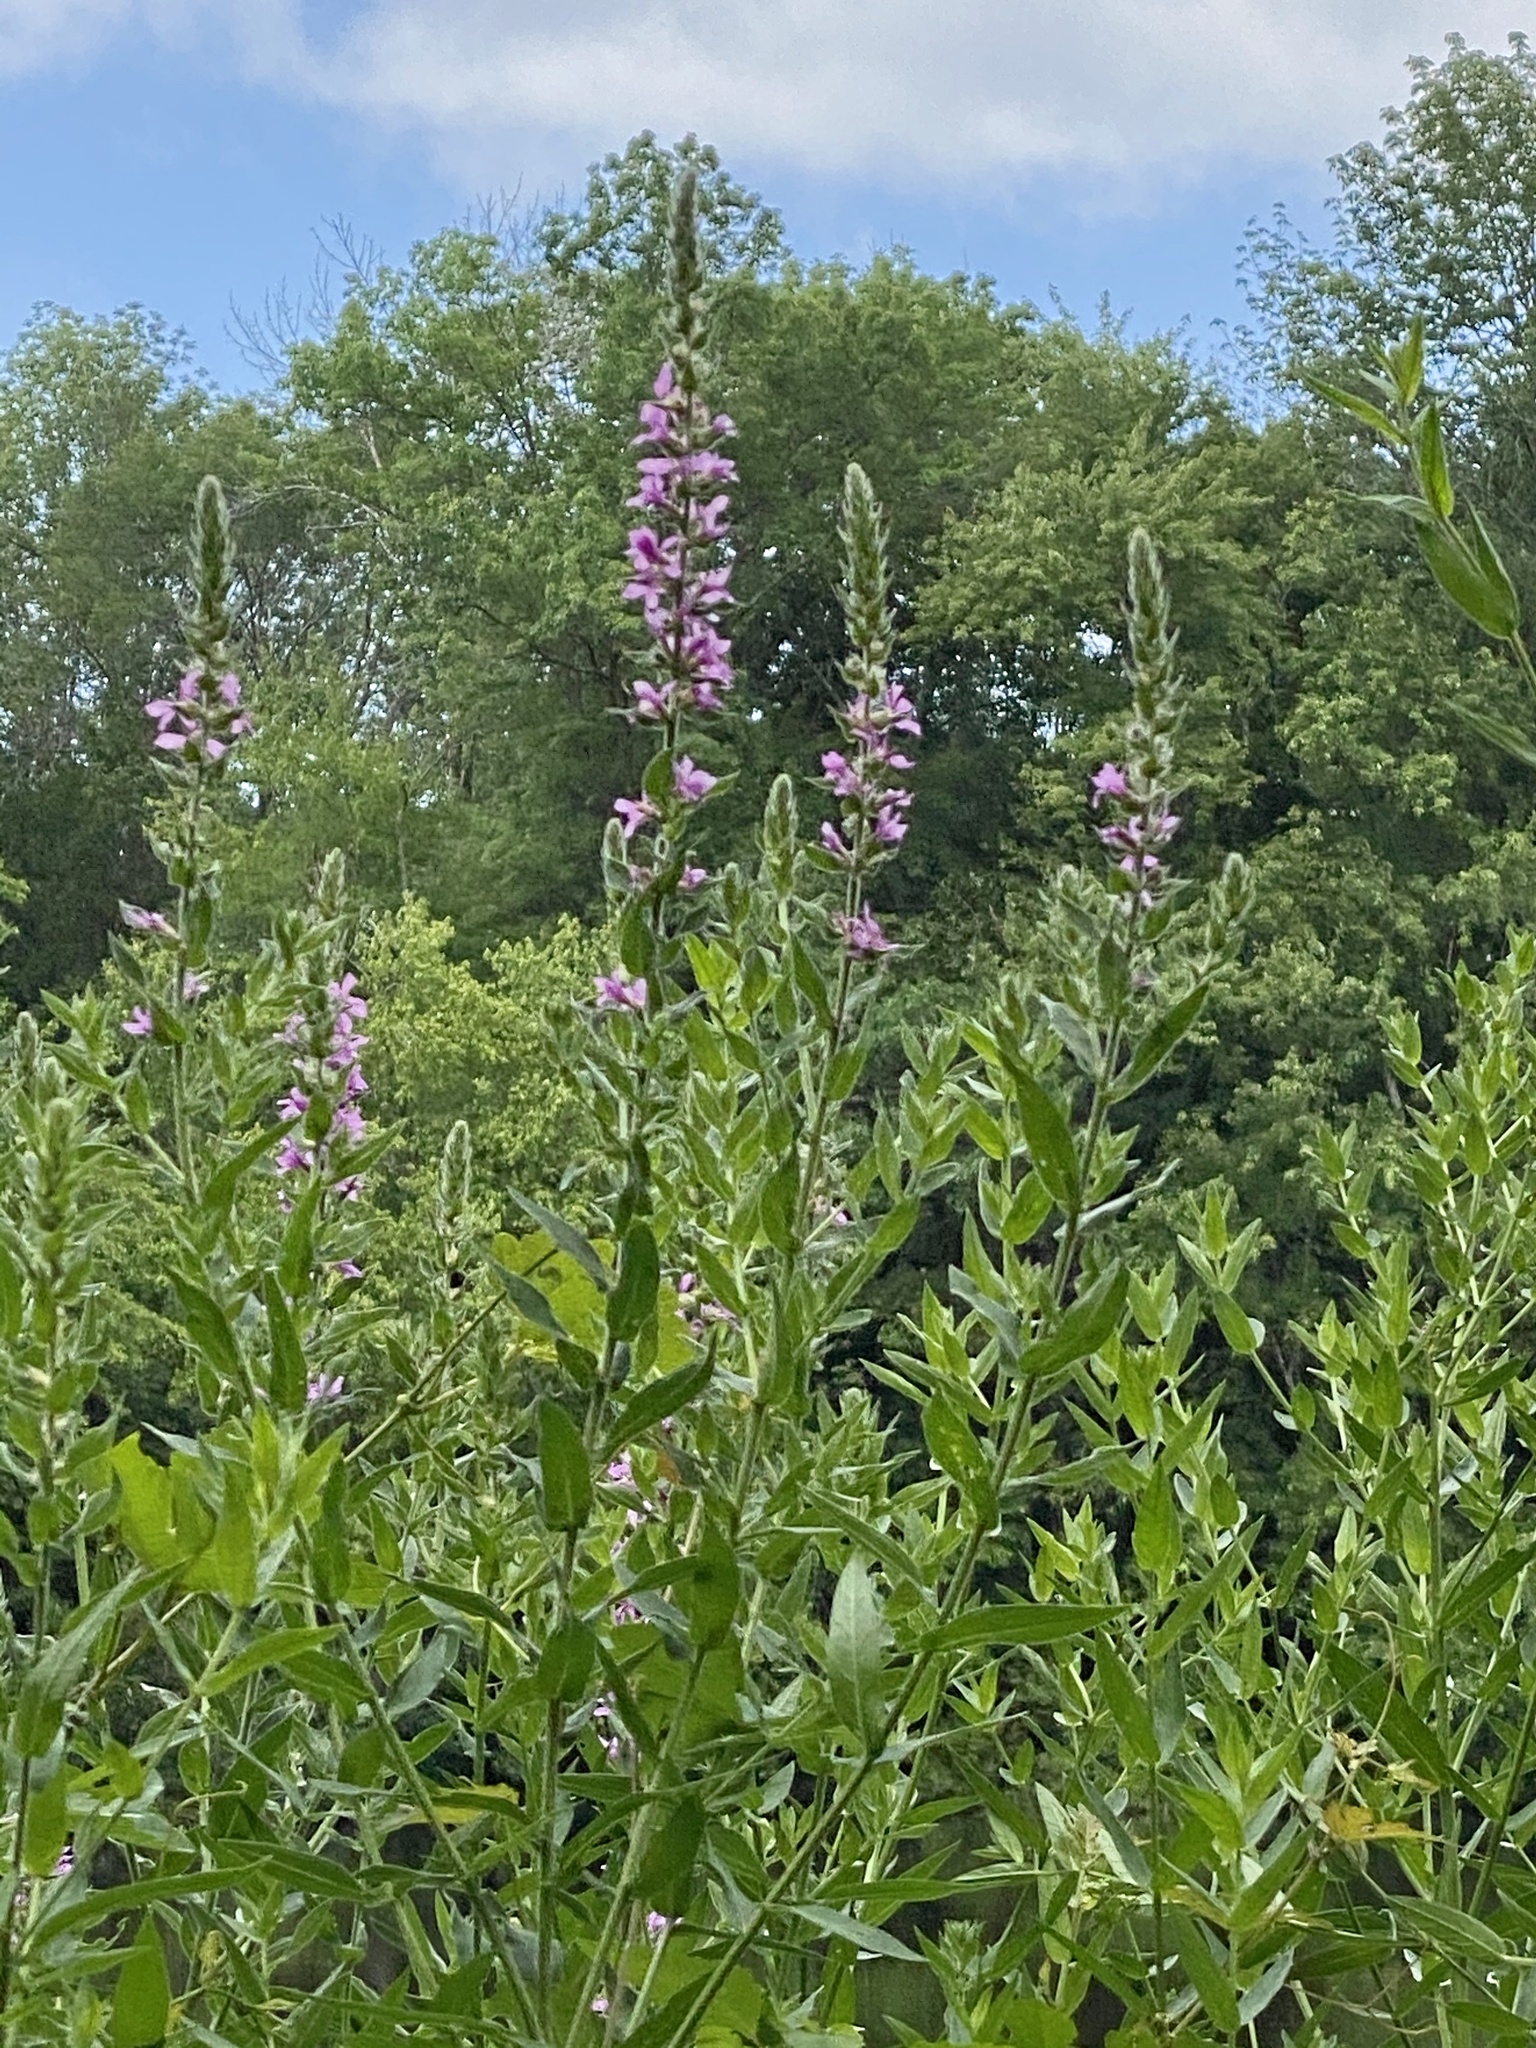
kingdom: Plantae
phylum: Tracheophyta
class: Magnoliopsida
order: Myrtales
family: Lythraceae
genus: Lythrum
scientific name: Lythrum salicaria
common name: Purple loosestrife
